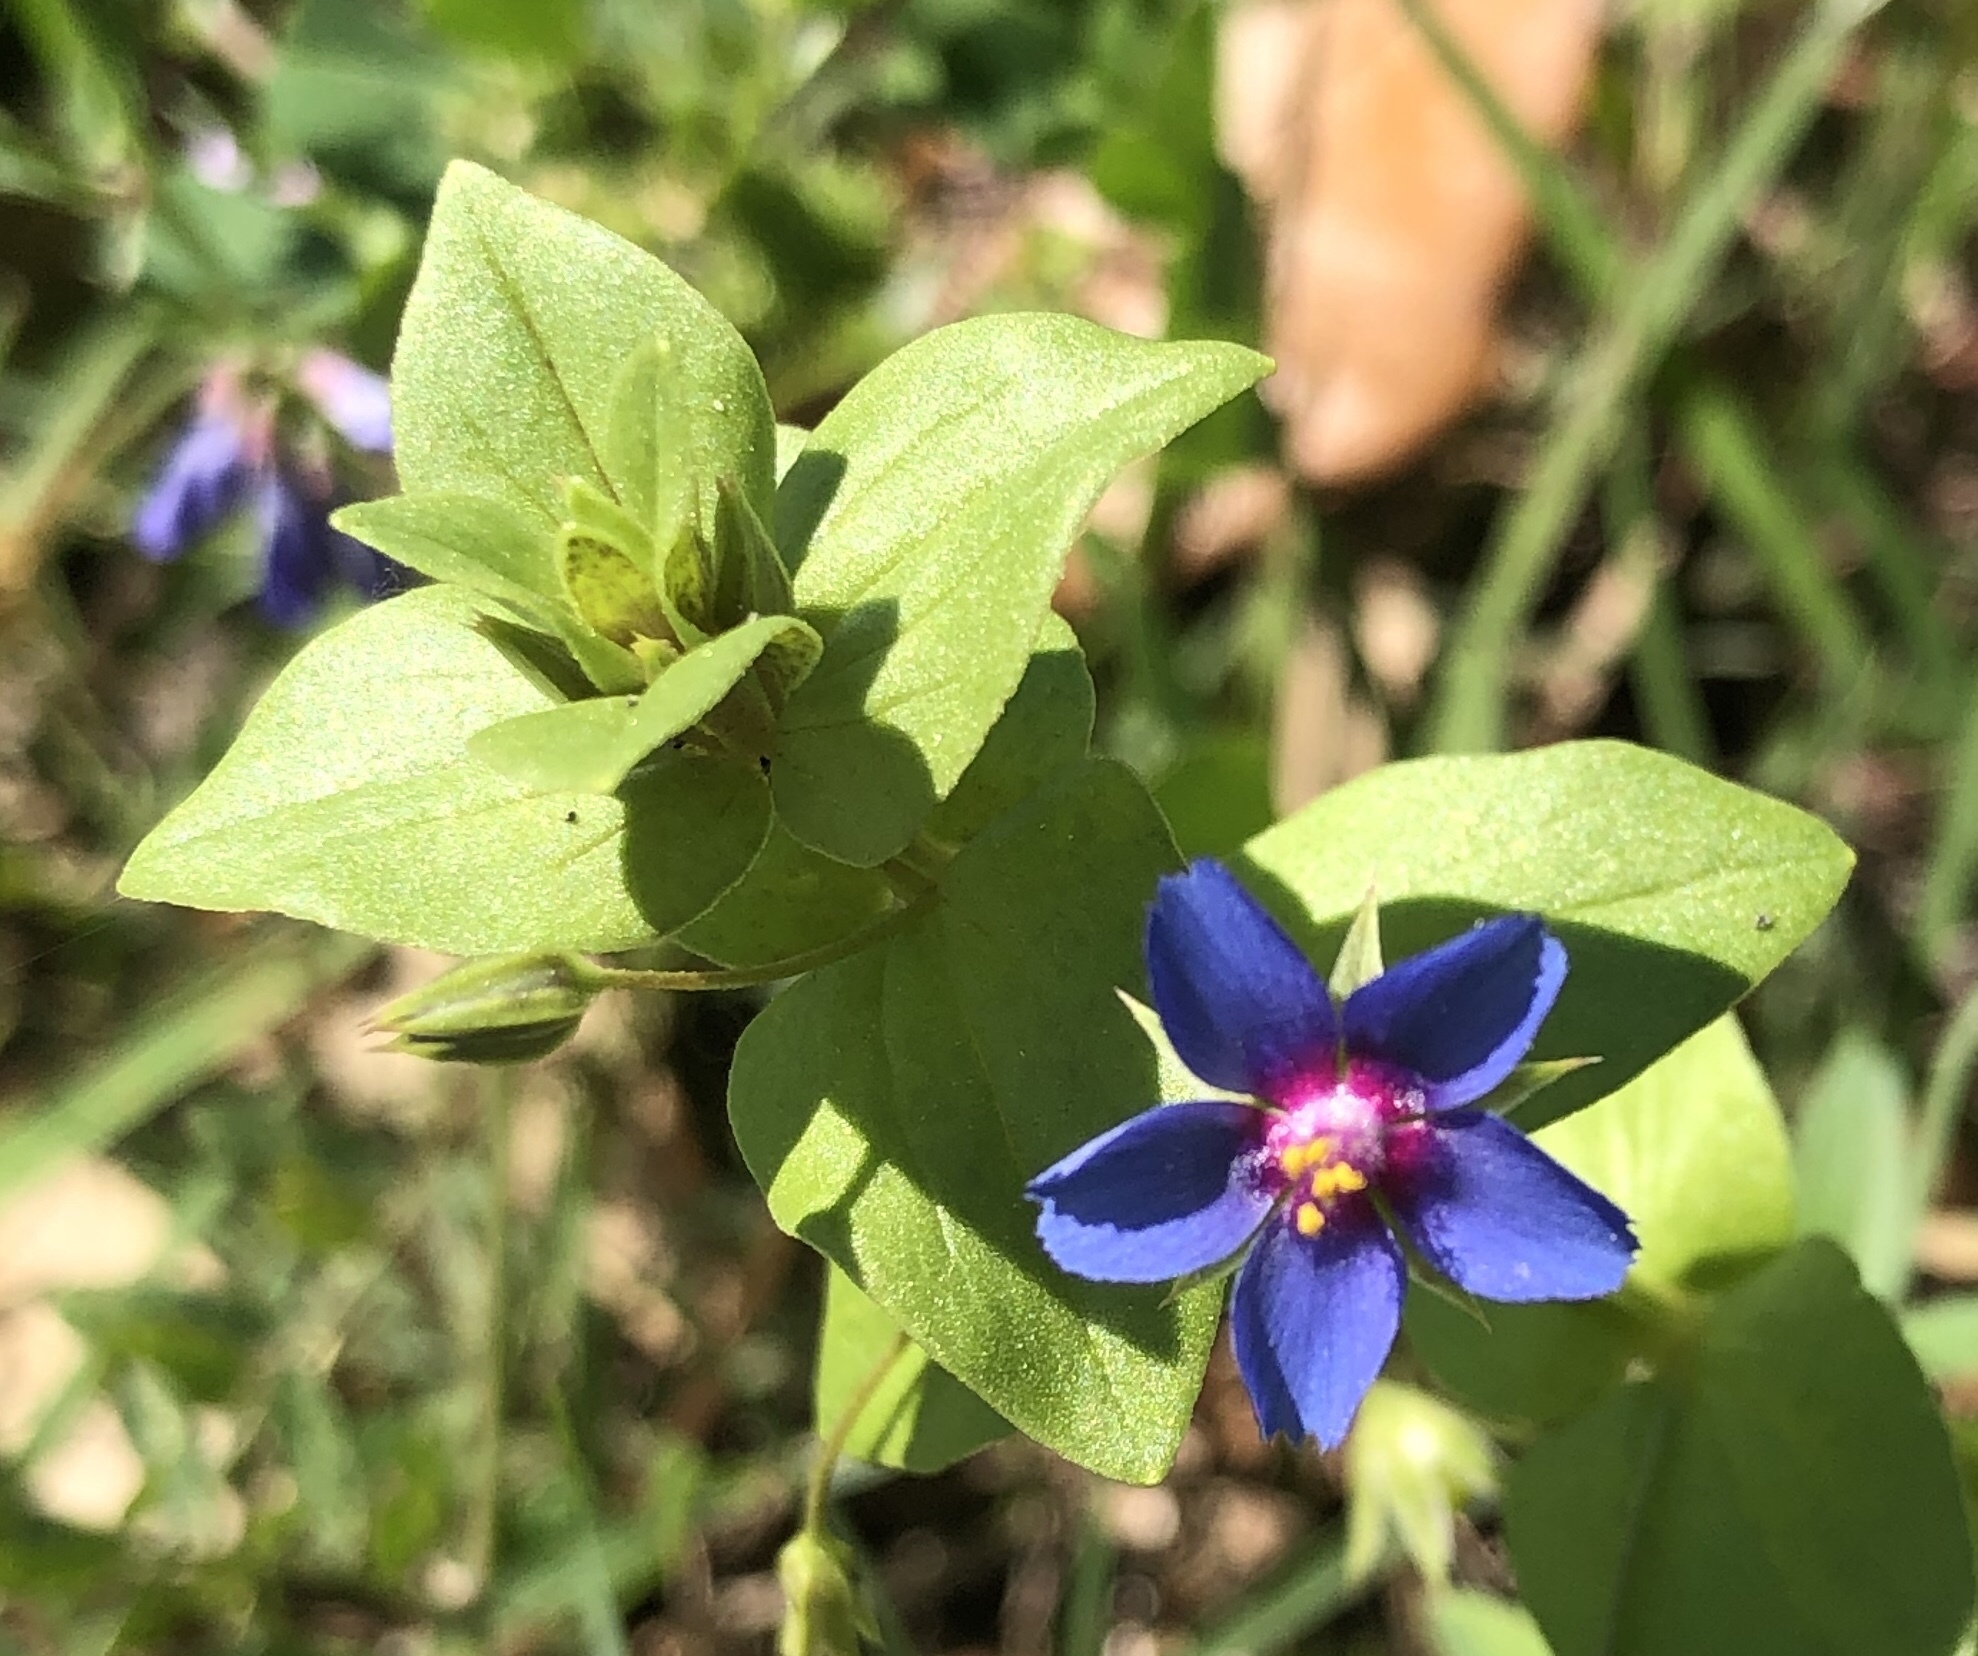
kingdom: Plantae
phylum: Tracheophyta
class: Magnoliopsida
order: Ericales
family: Primulaceae
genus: Lysimachia
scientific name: Lysimachia arvensis
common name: Scarlet pimpernel
